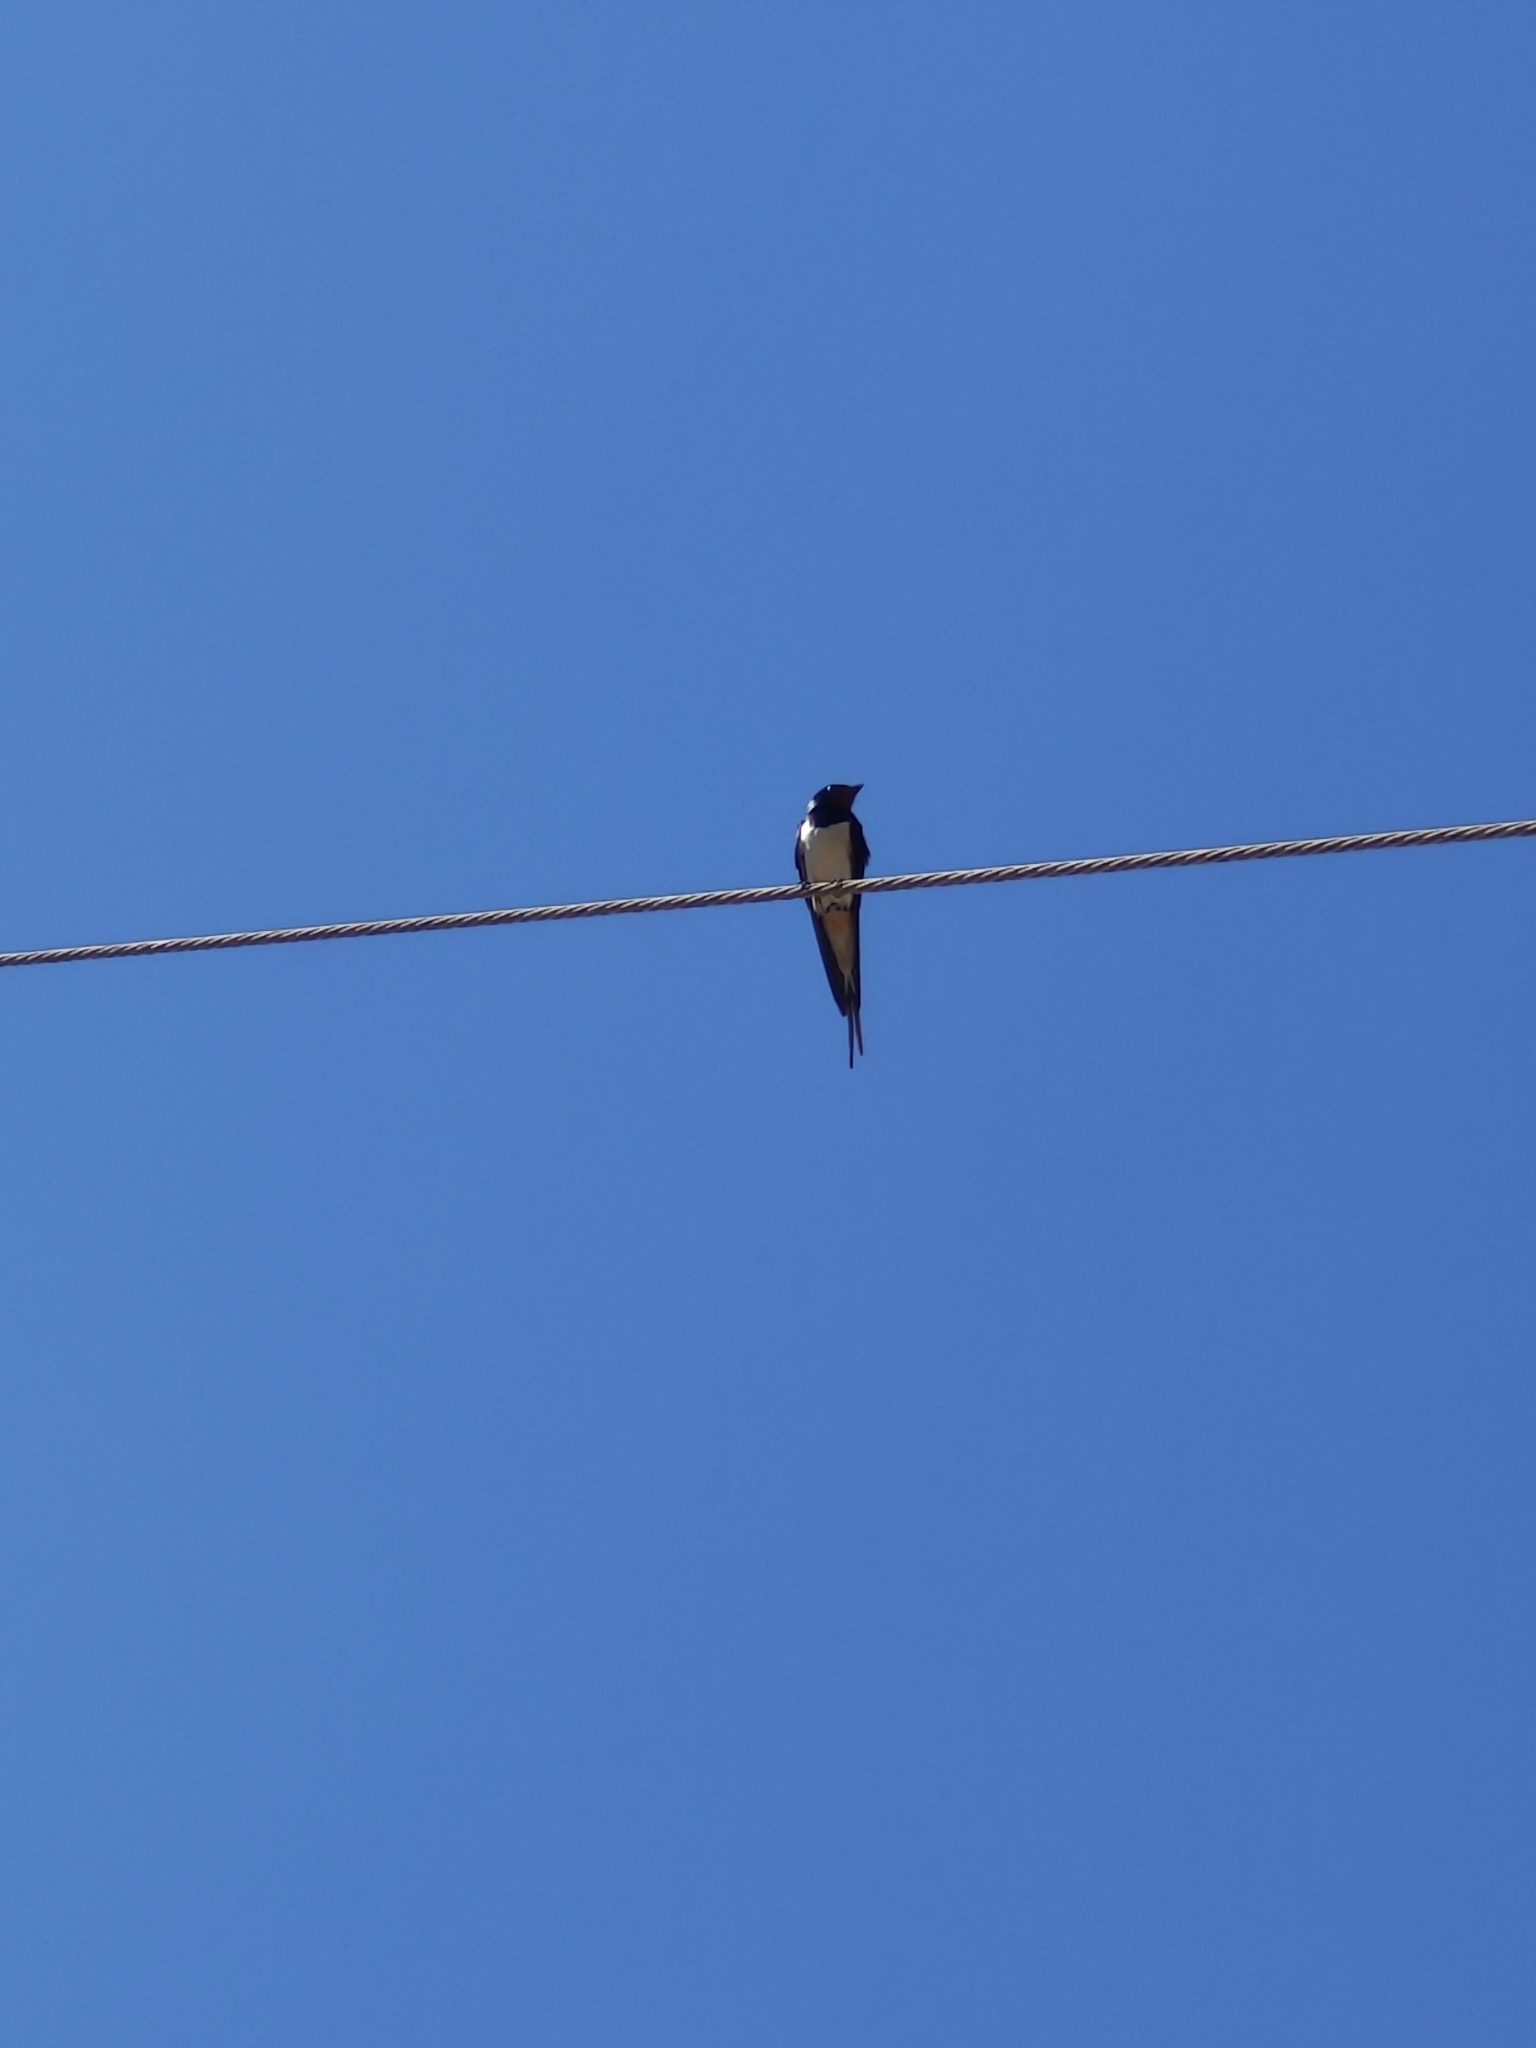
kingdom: Animalia
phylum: Chordata
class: Aves
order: Passeriformes
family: Hirundinidae
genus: Hirundo
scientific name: Hirundo rustica
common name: Barn swallow
